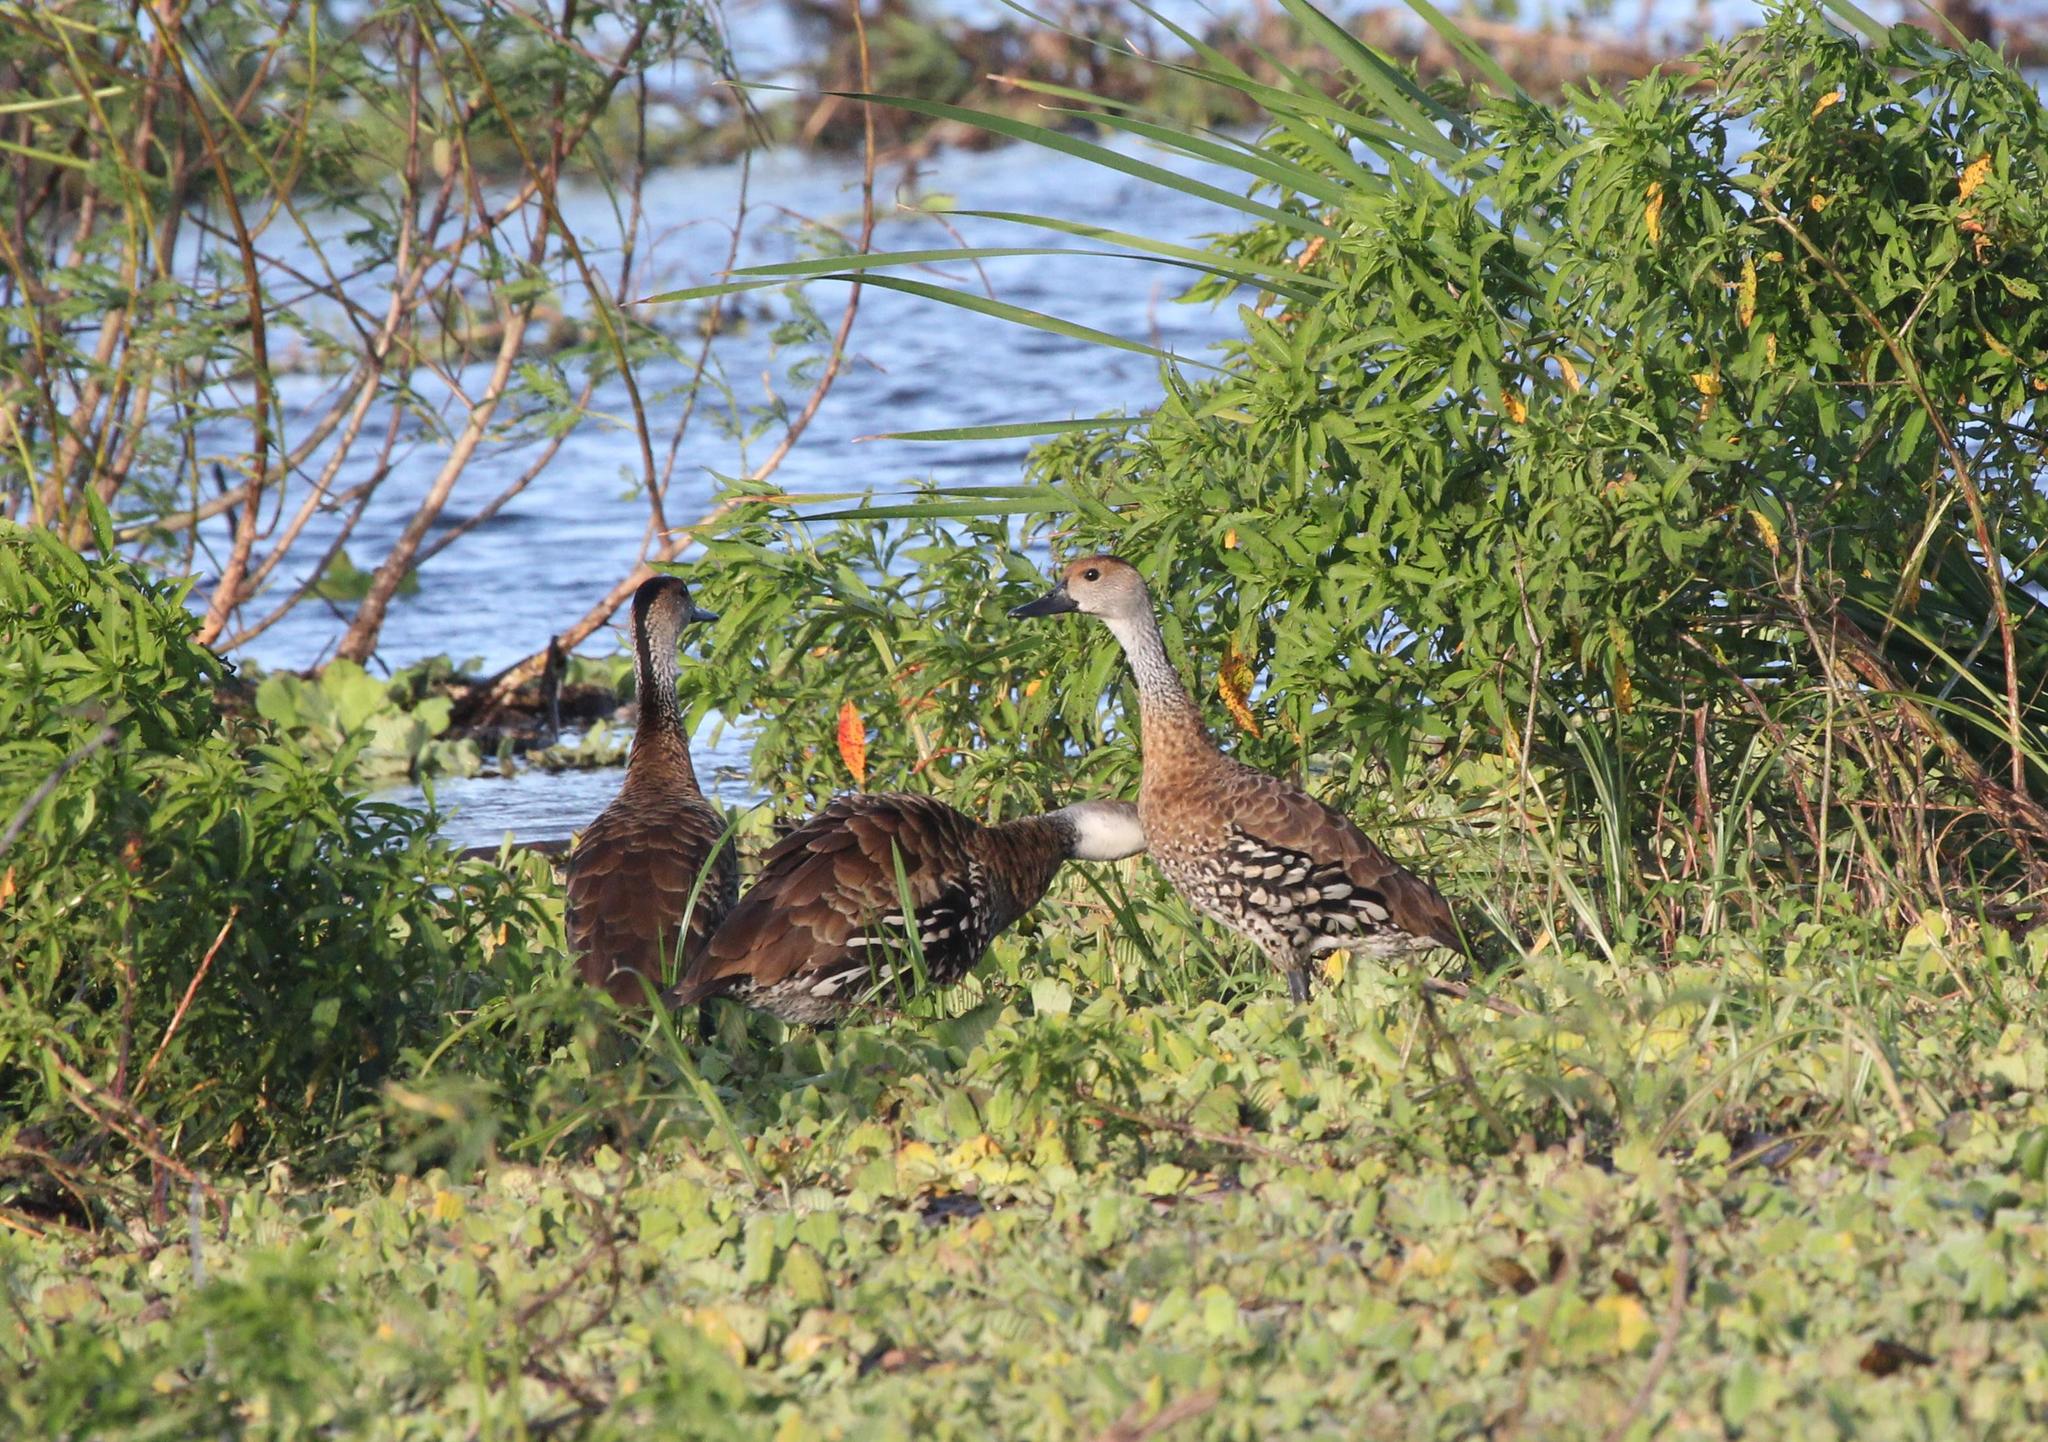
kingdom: Animalia
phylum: Chordata
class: Aves
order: Anseriformes
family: Anatidae
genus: Dendrocygna
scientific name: Dendrocygna arborea
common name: West indian whistling duck
